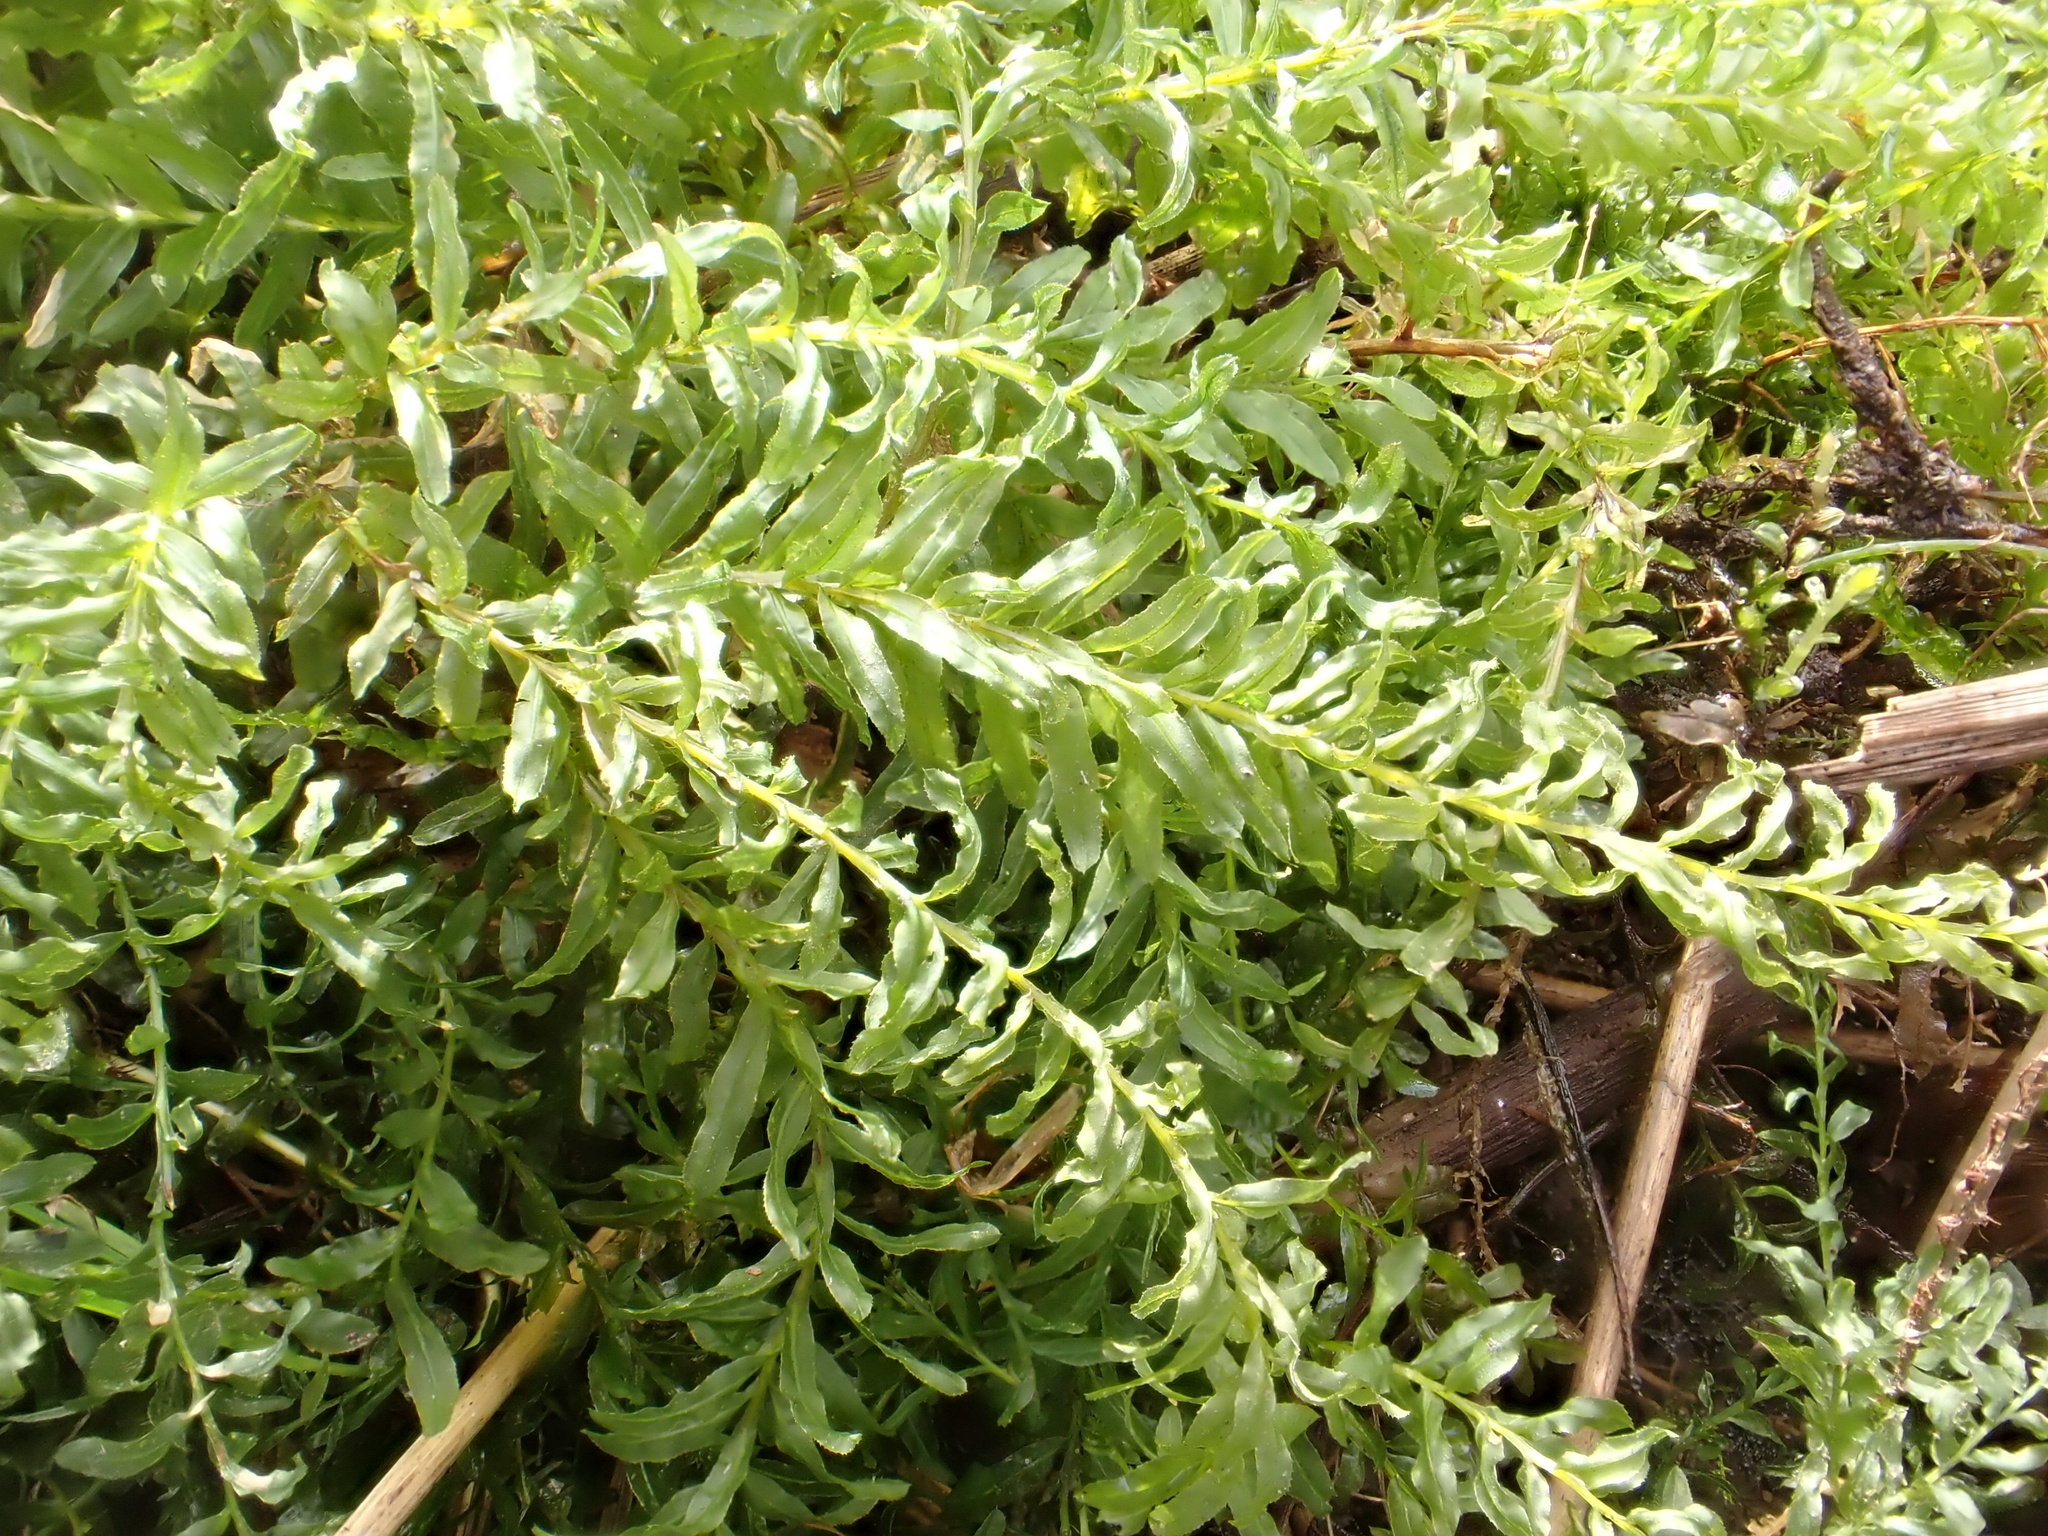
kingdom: Plantae
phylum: Bryophyta
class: Bryopsida
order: Bryales
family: Mniaceae
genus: Plagiomnium
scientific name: Plagiomnium undulatum
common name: Hart's-tongue thyme-moss
